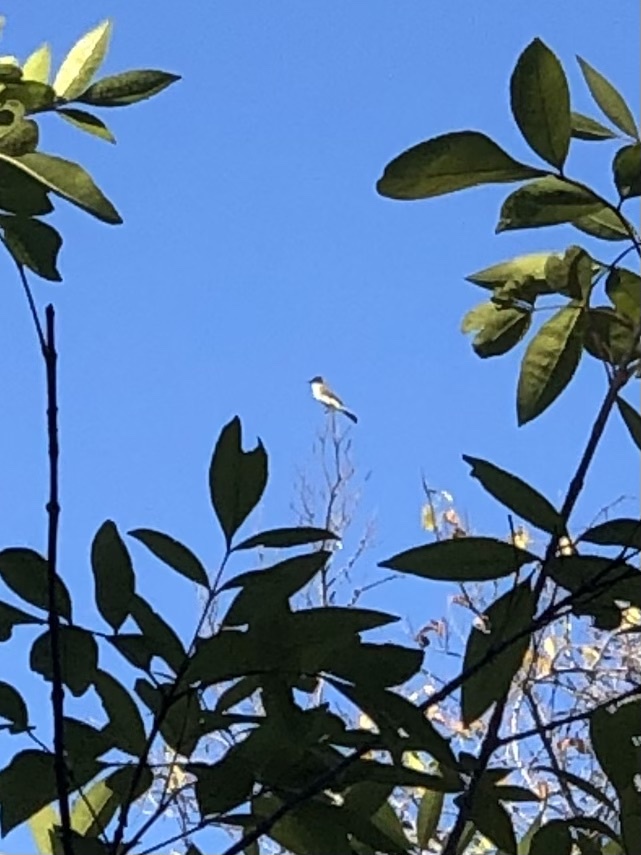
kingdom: Animalia
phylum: Chordata
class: Aves
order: Passeriformes
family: Tyrannidae
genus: Sayornis
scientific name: Sayornis phoebe
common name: Eastern phoebe
